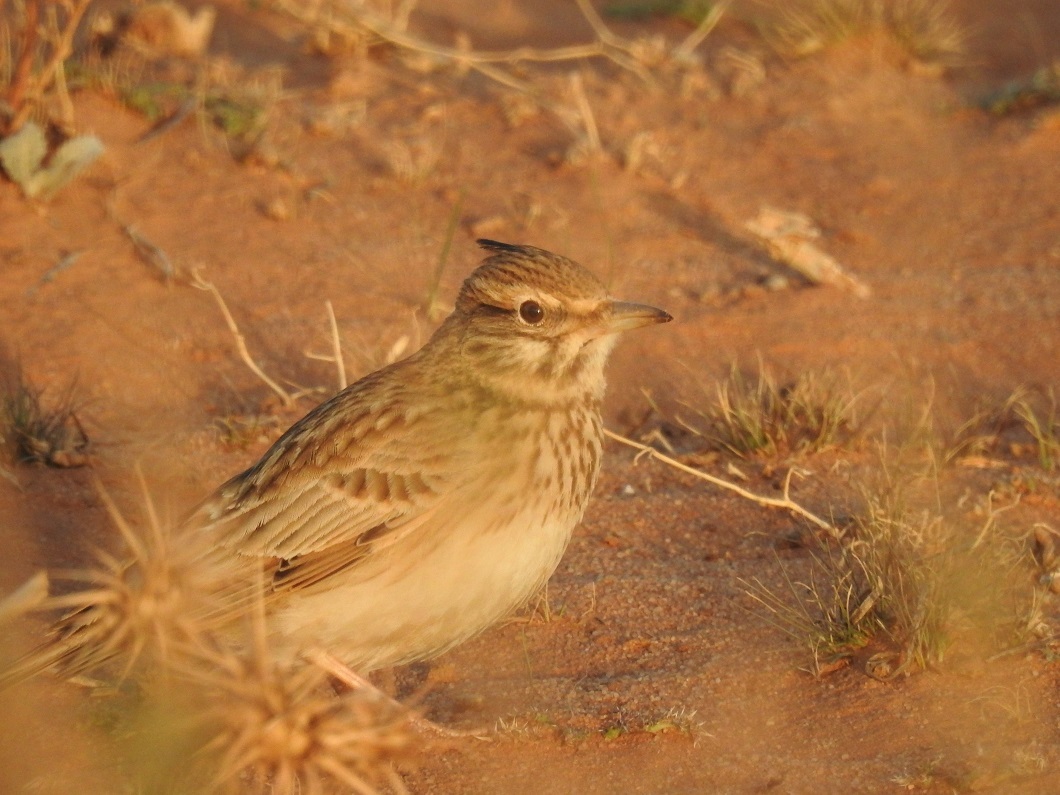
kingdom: Animalia
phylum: Chordata
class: Aves
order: Passeriformes
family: Alaudidae
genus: Galerida
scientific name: Galerida cristata
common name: Crested lark
